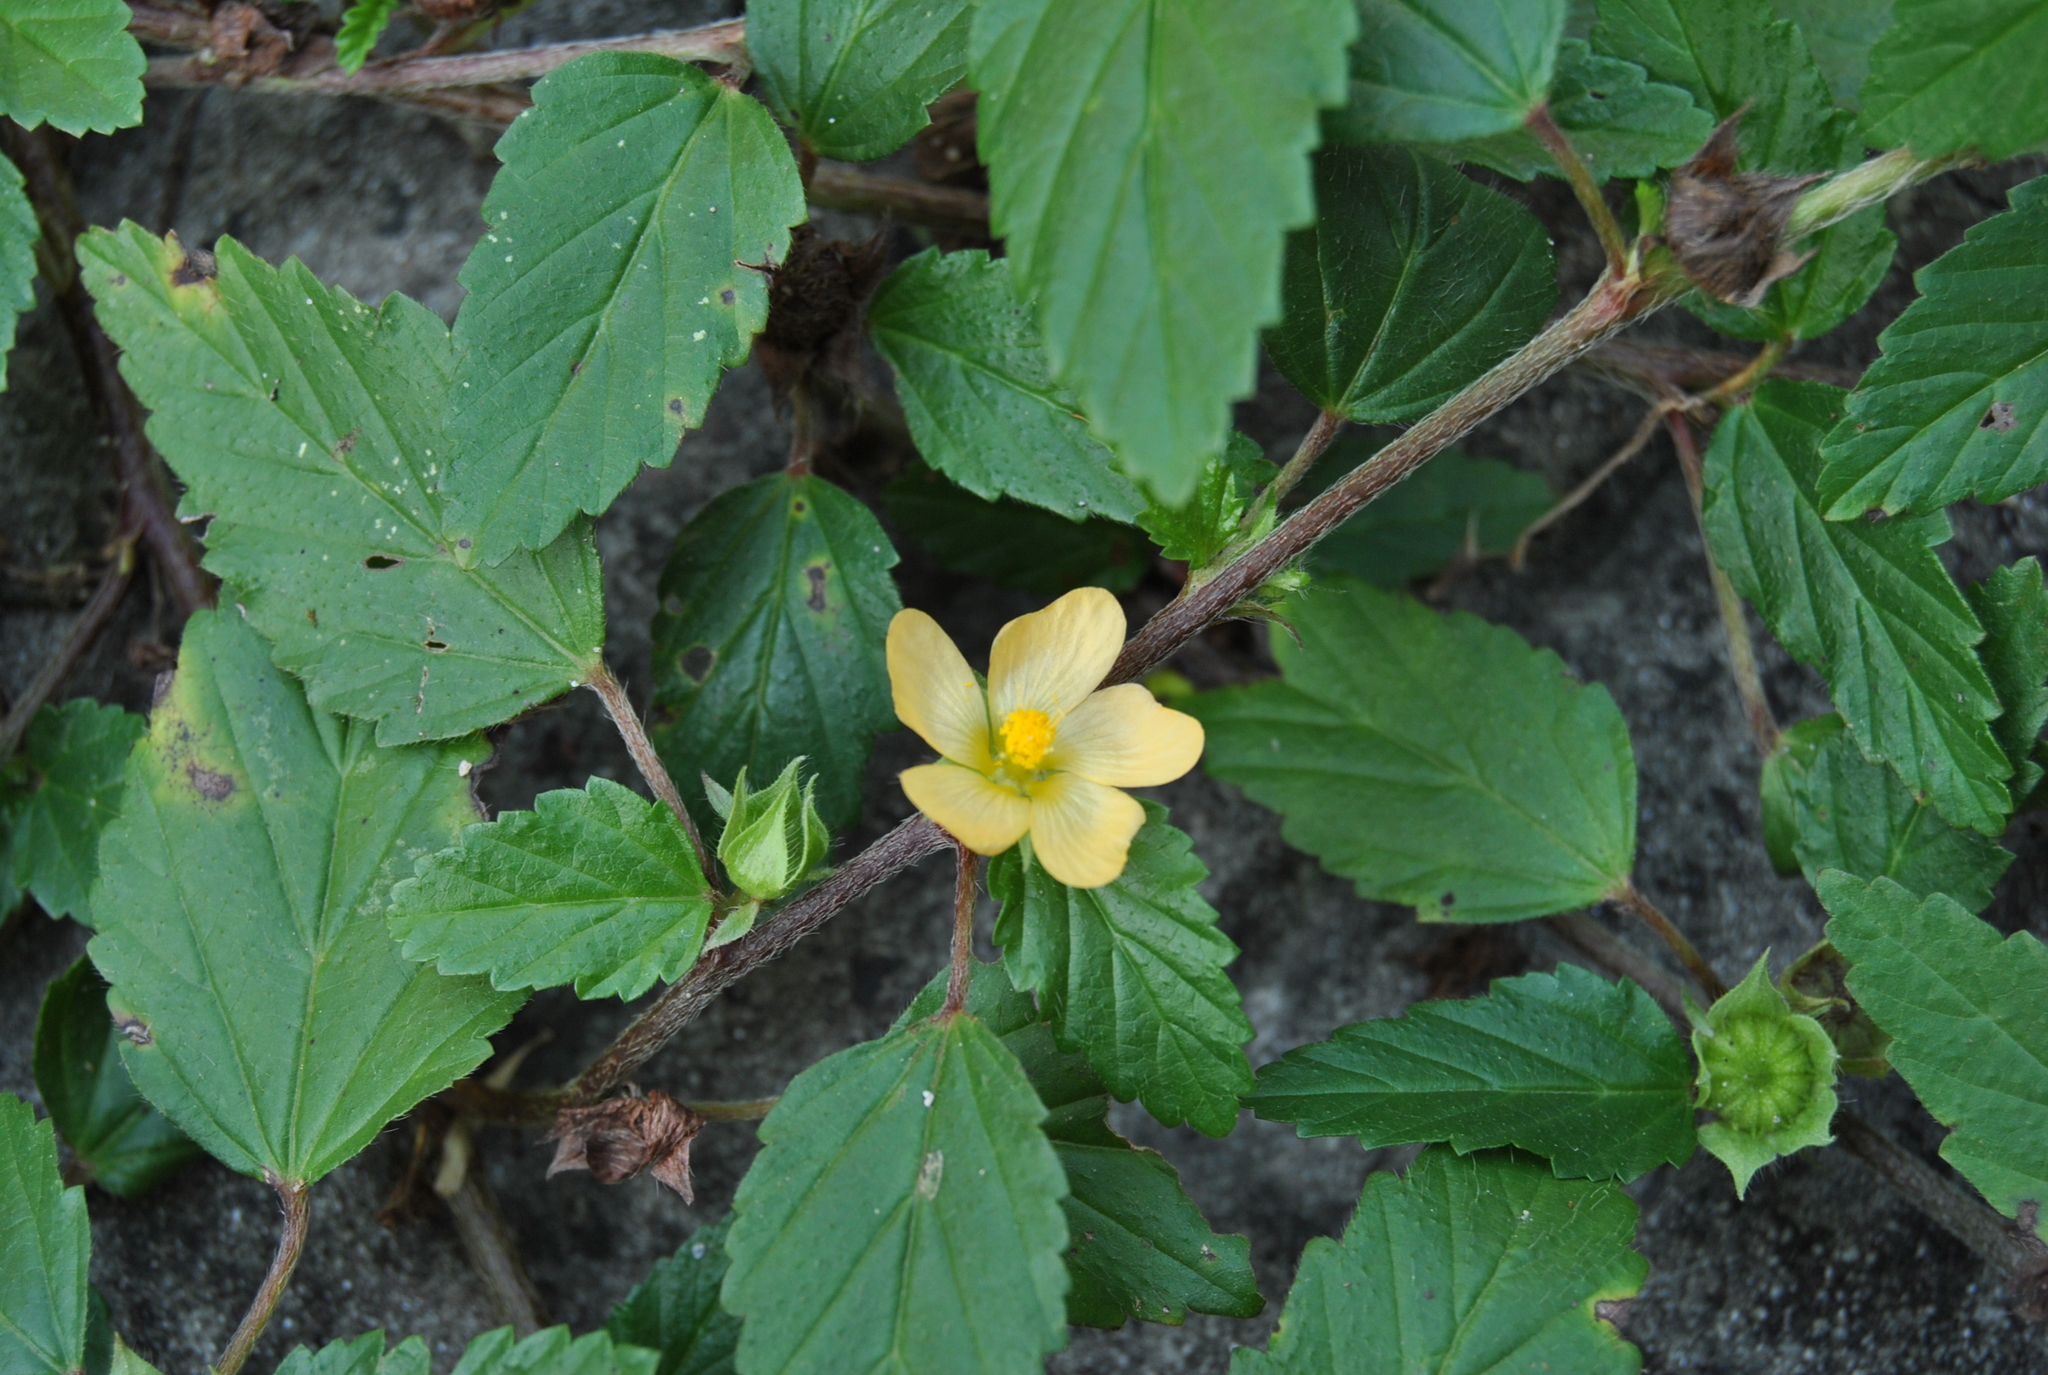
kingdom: Plantae
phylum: Tracheophyta
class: Magnoliopsida
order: Malvales
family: Malvaceae
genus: Malvastrum
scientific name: Malvastrum coromandelianum
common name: Threelobe false mallow
